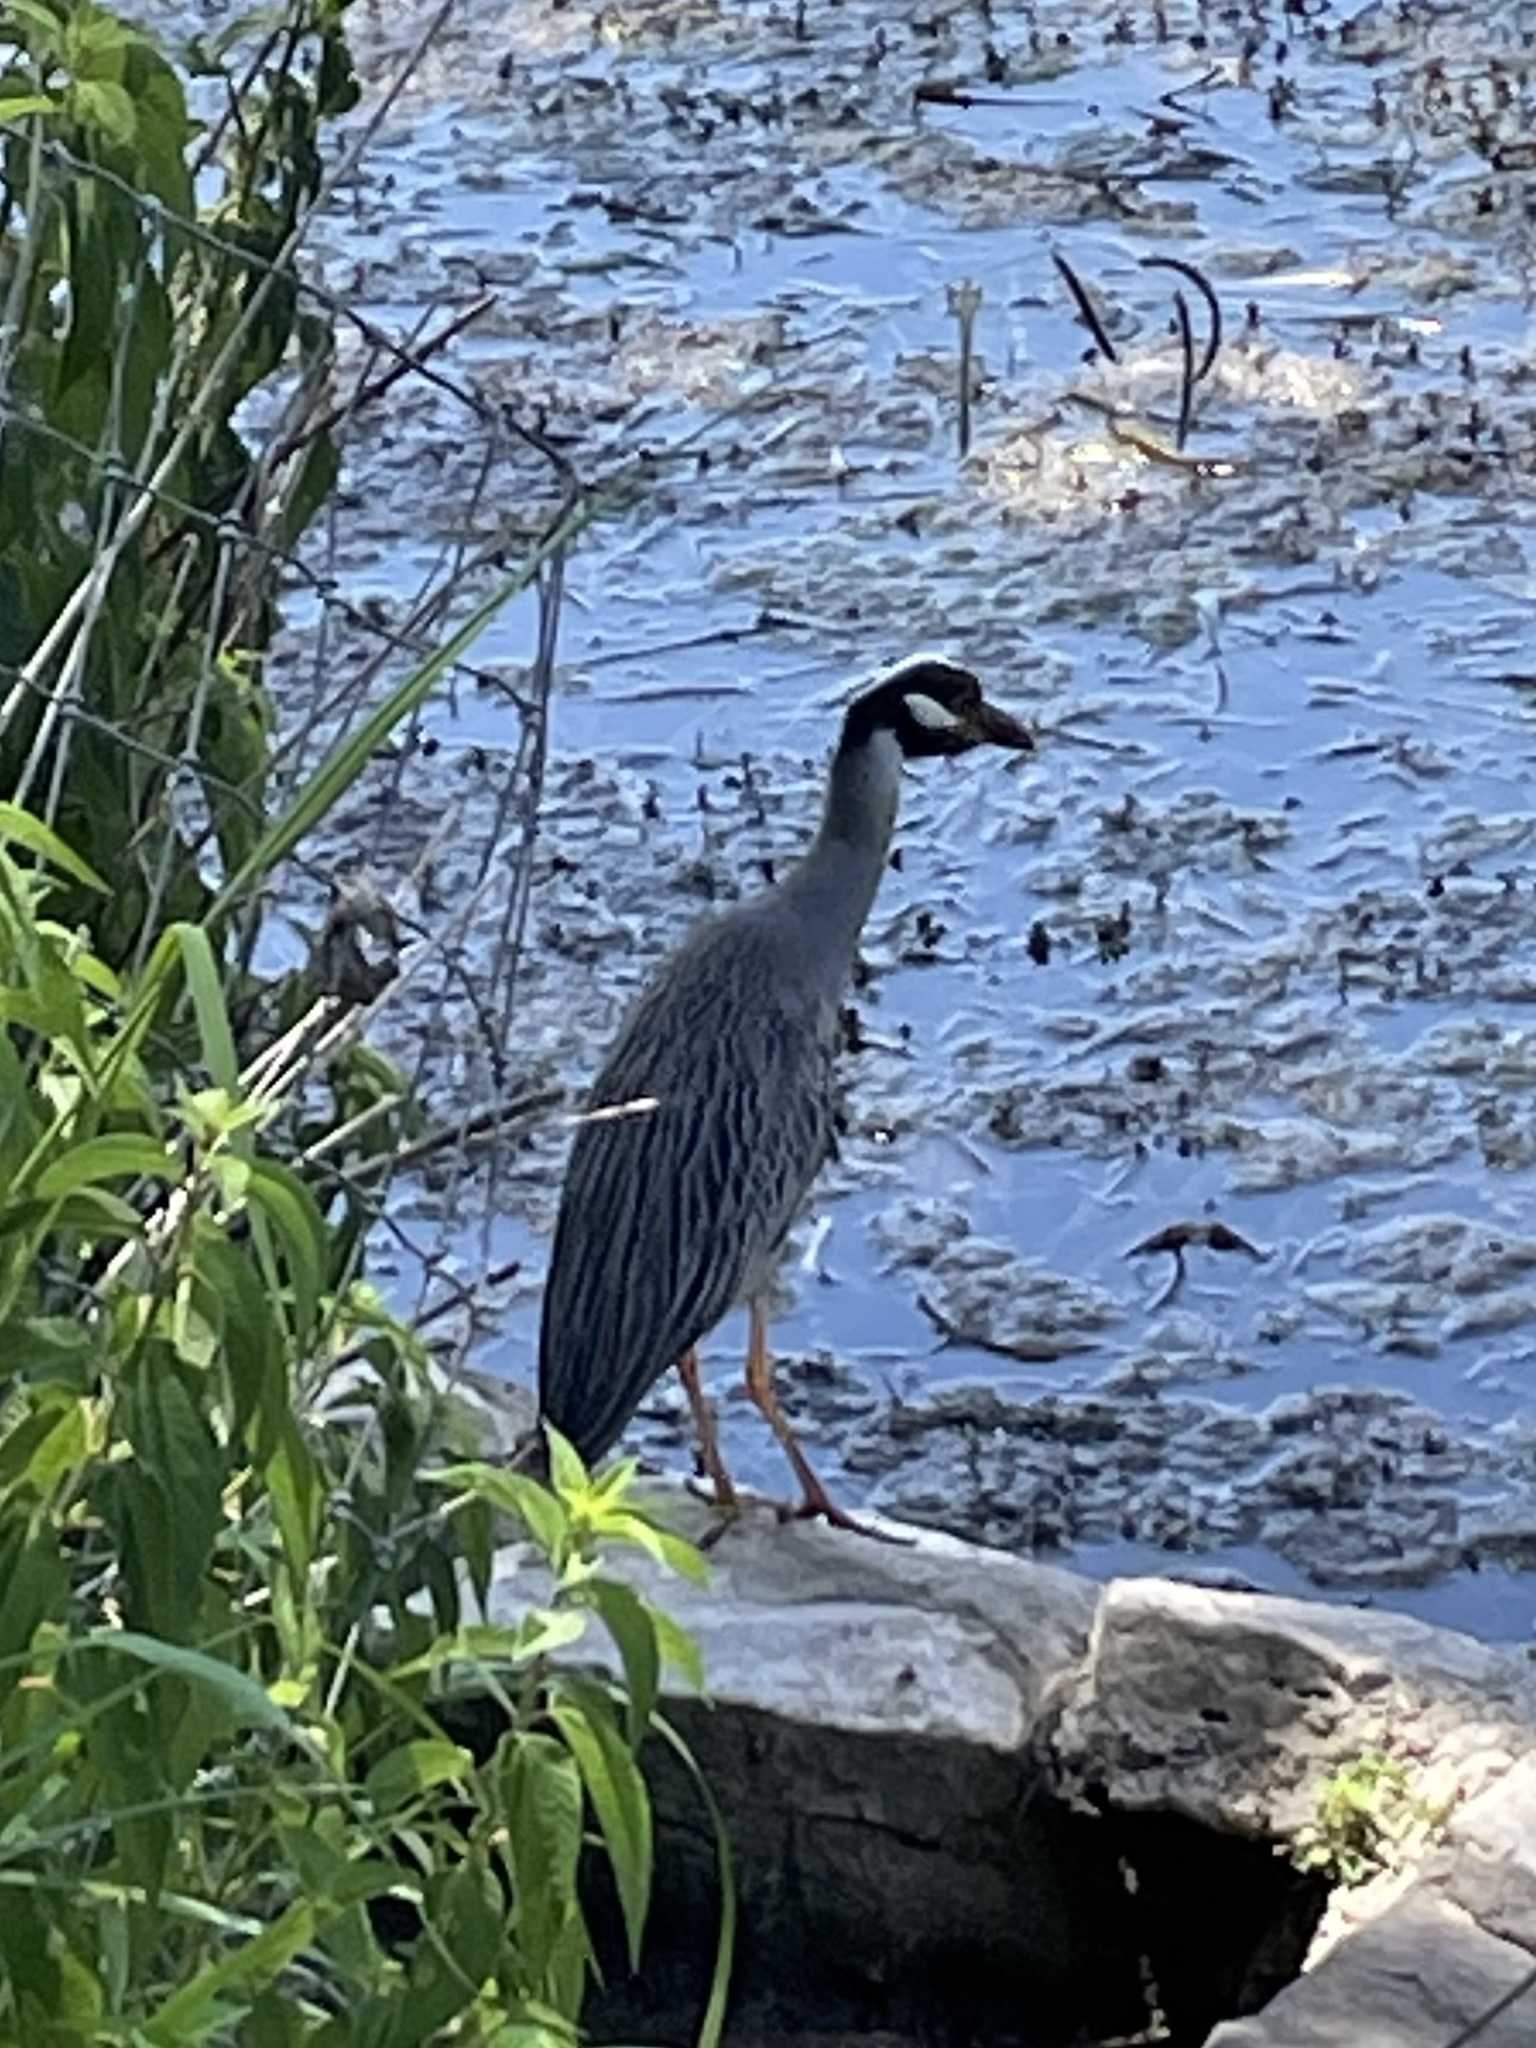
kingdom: Animalia
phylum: Chordata
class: Aves
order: Pelecaniformes
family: Ardeidae
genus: Nyctanassa
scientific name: Nyctanassa violacea
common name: Yellow-crowned night heron
